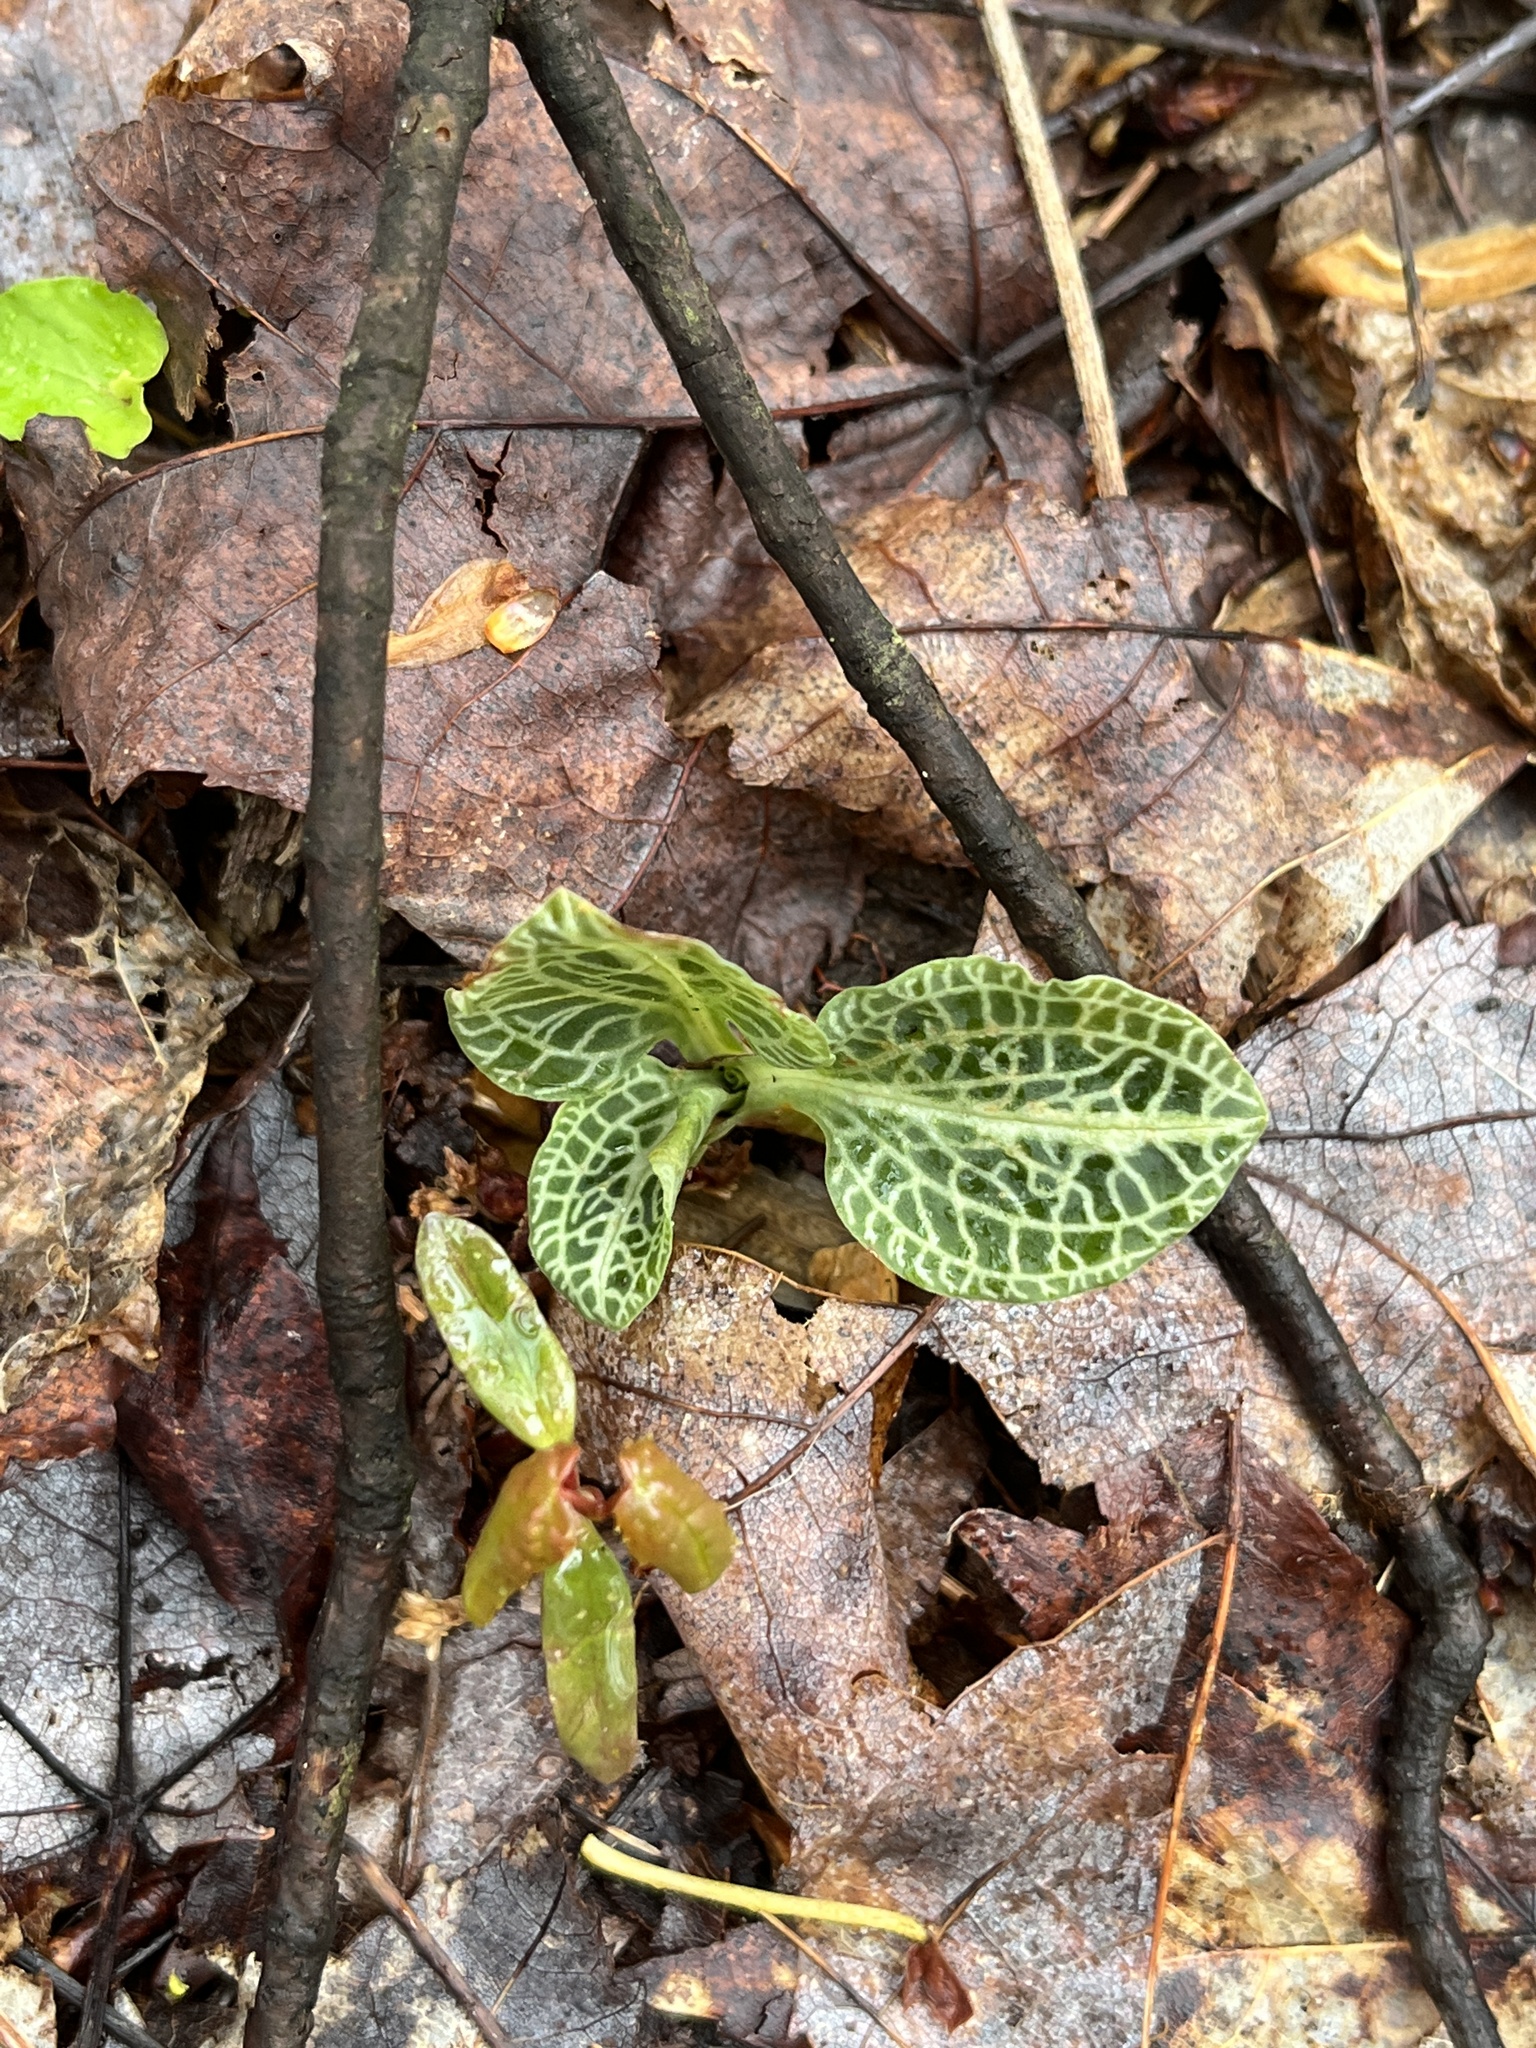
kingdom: Plantae
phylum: Tracheophyta
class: Liliopsida
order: Asparagales
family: Orchidaceae
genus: Goodyera
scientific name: Goodyera pubescens
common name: Downy rattlesnake-plantain
